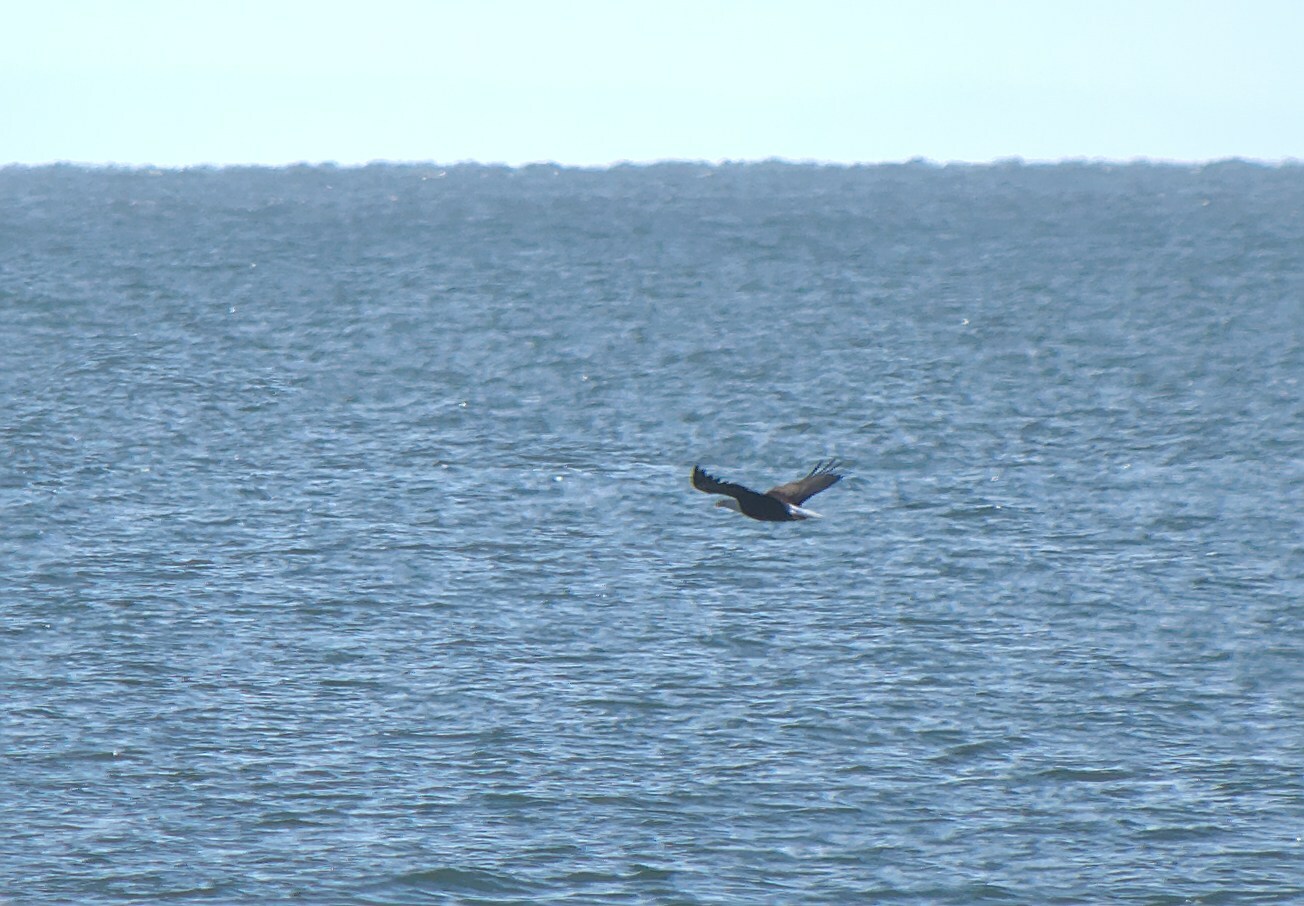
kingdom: Animalia
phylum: Chordata
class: Aves
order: Accipitriformes
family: Accipitridae
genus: Haliaeetus
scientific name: Haliaeetus leucocephalus
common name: Bald eagle
